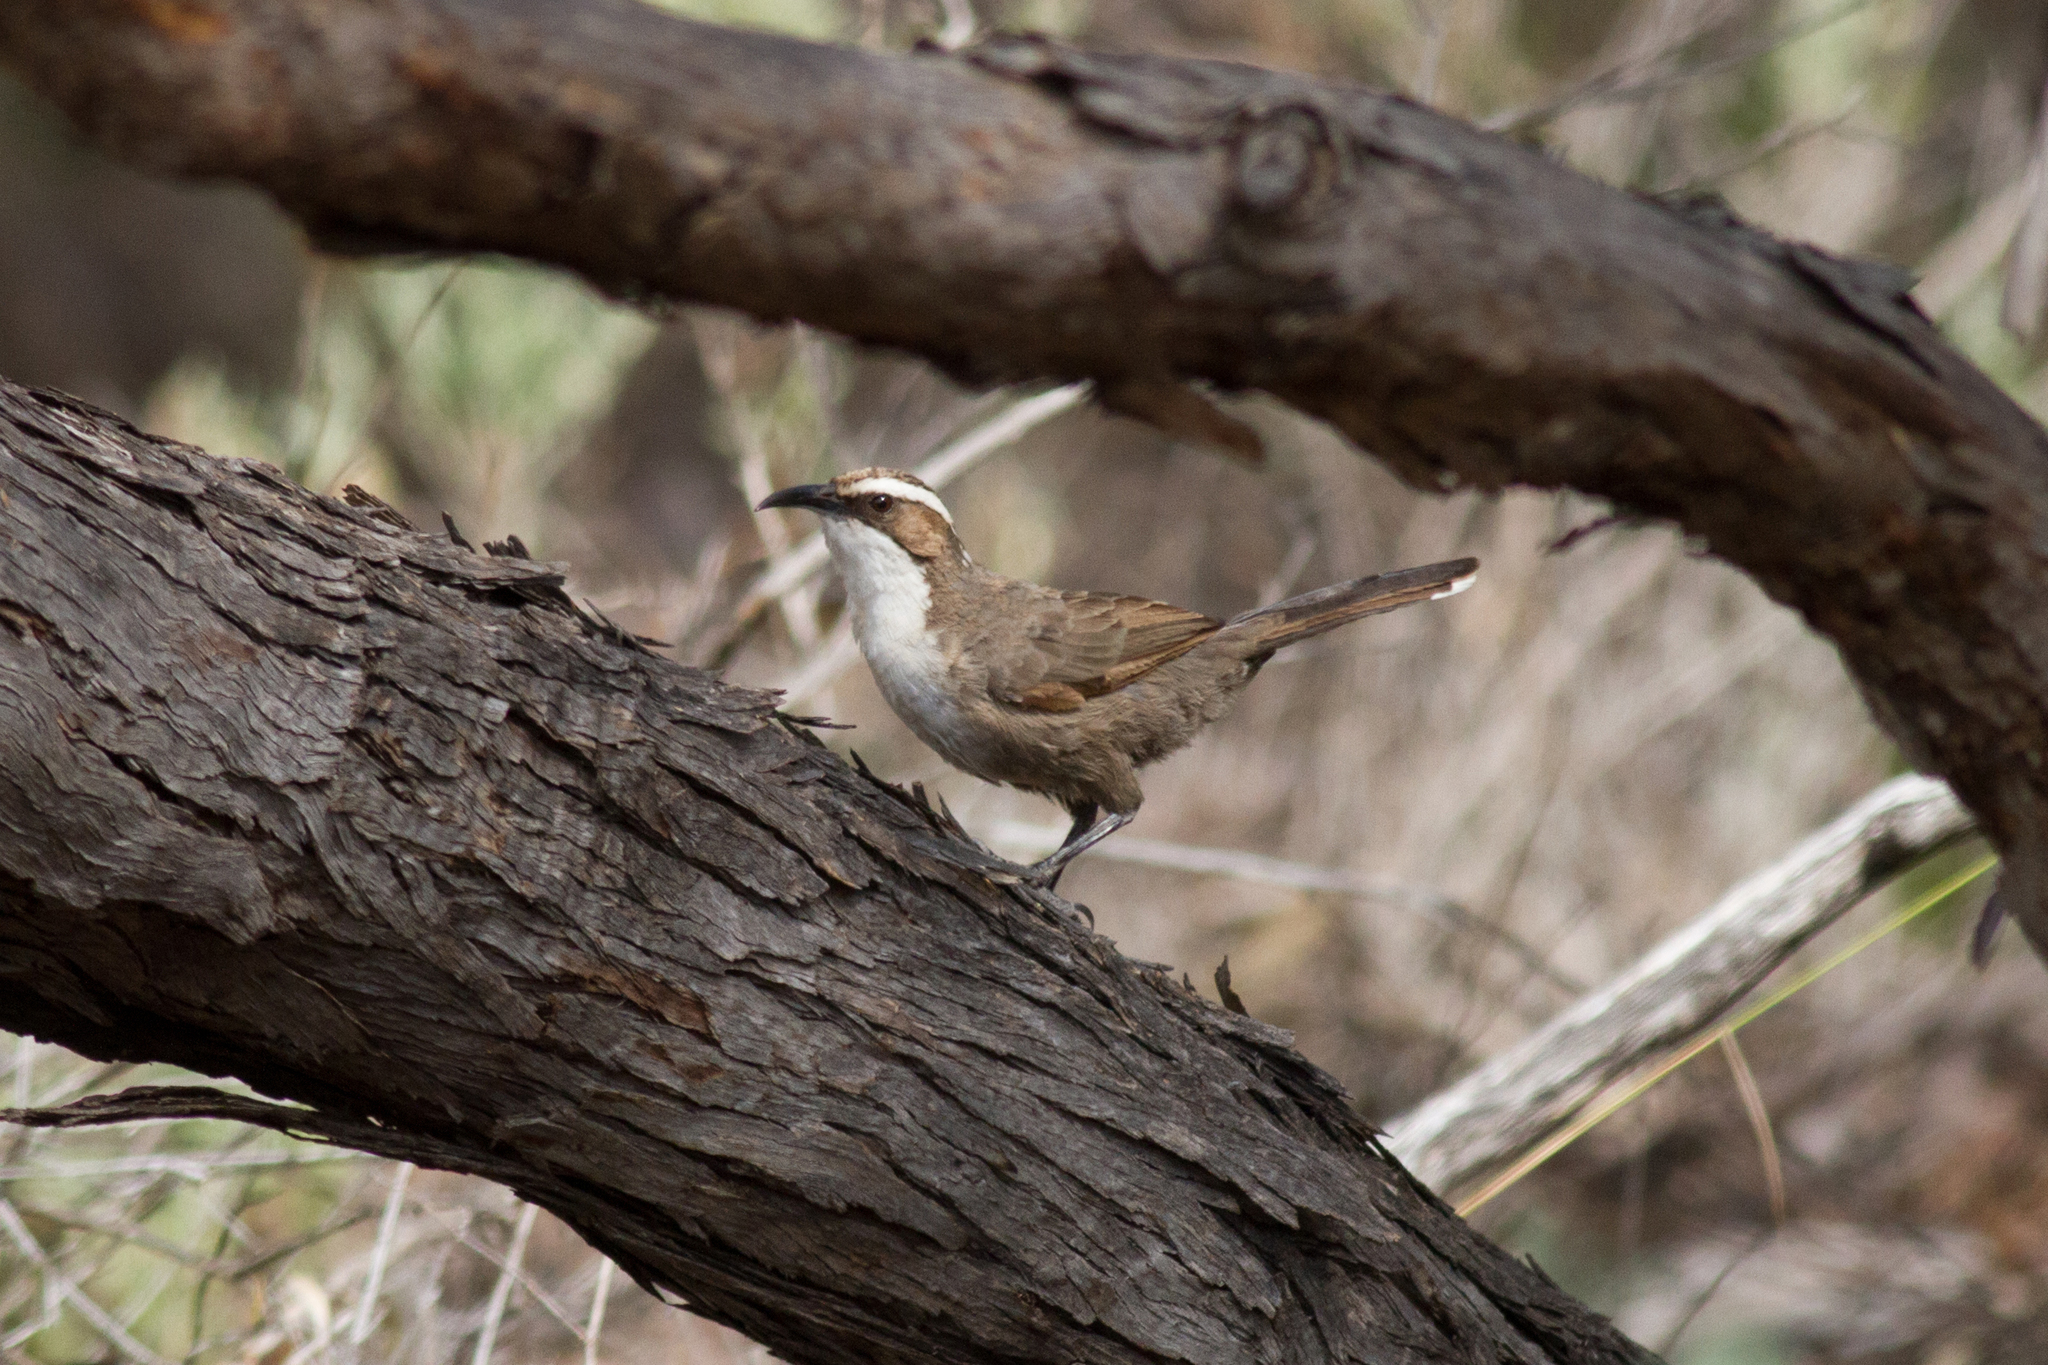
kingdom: Animalia
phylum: Chordata
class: Aves
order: Passeriformes
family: Pomatostomidae
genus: Pomatostomus
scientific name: Pomatostomus superciliosus
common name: White-browed babbler
